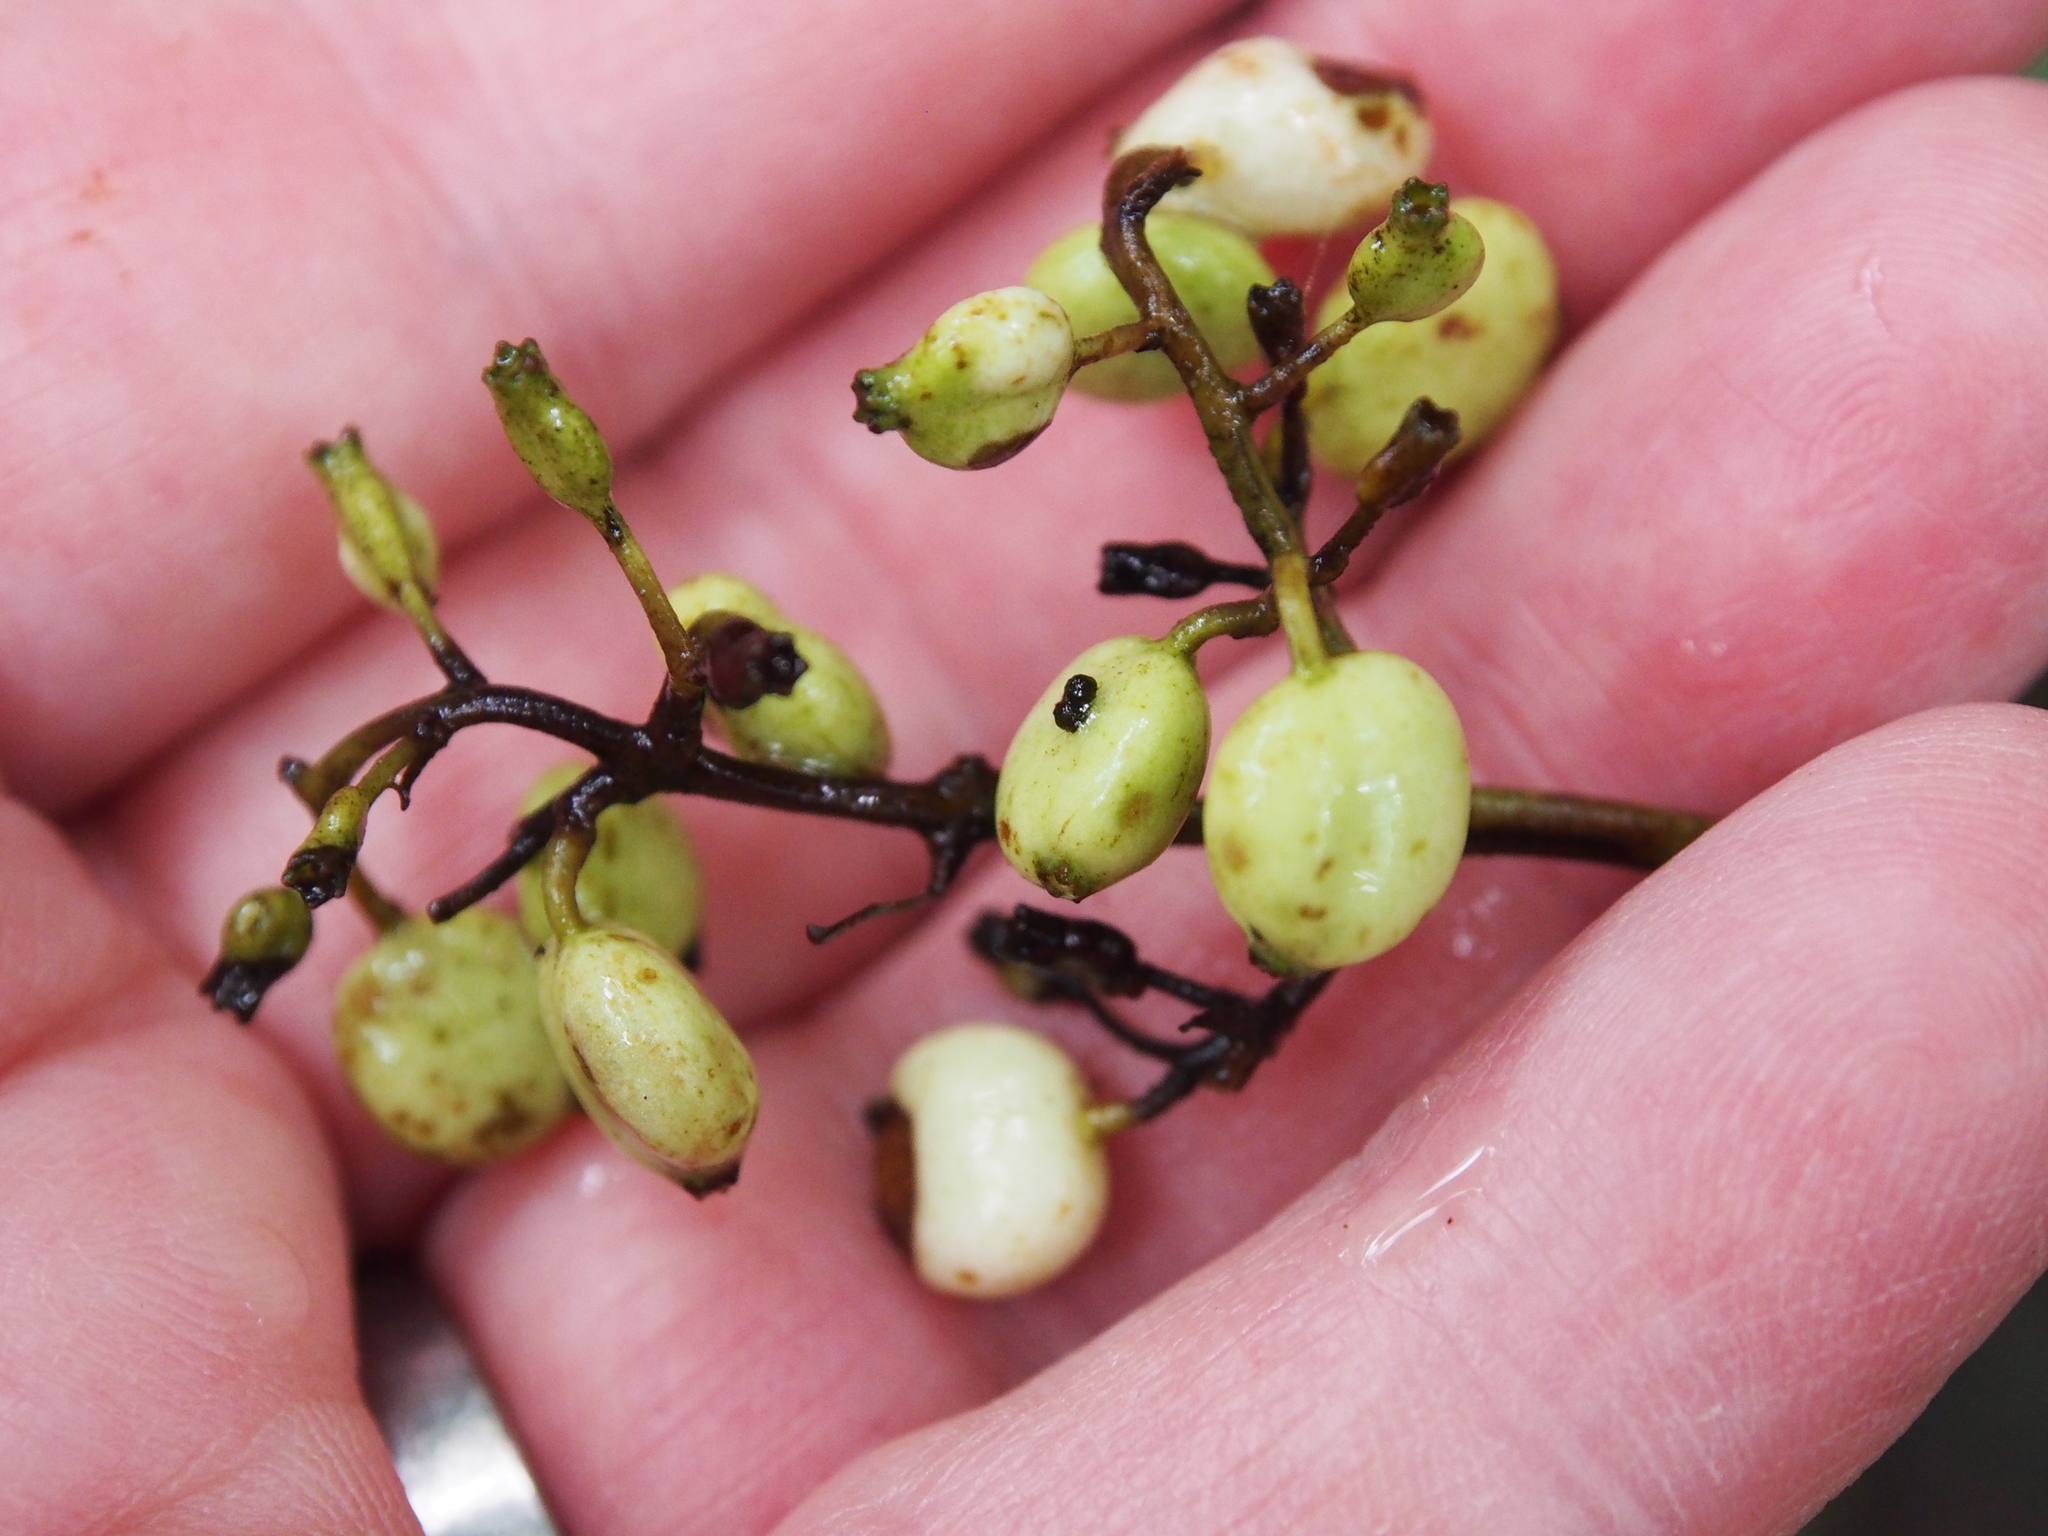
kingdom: Plantae
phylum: Tracheophyta
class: Magnoliopsida
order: Gentianales
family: Rubiaceae
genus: Chiococca
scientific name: Chiococca alba
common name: Snowberry
